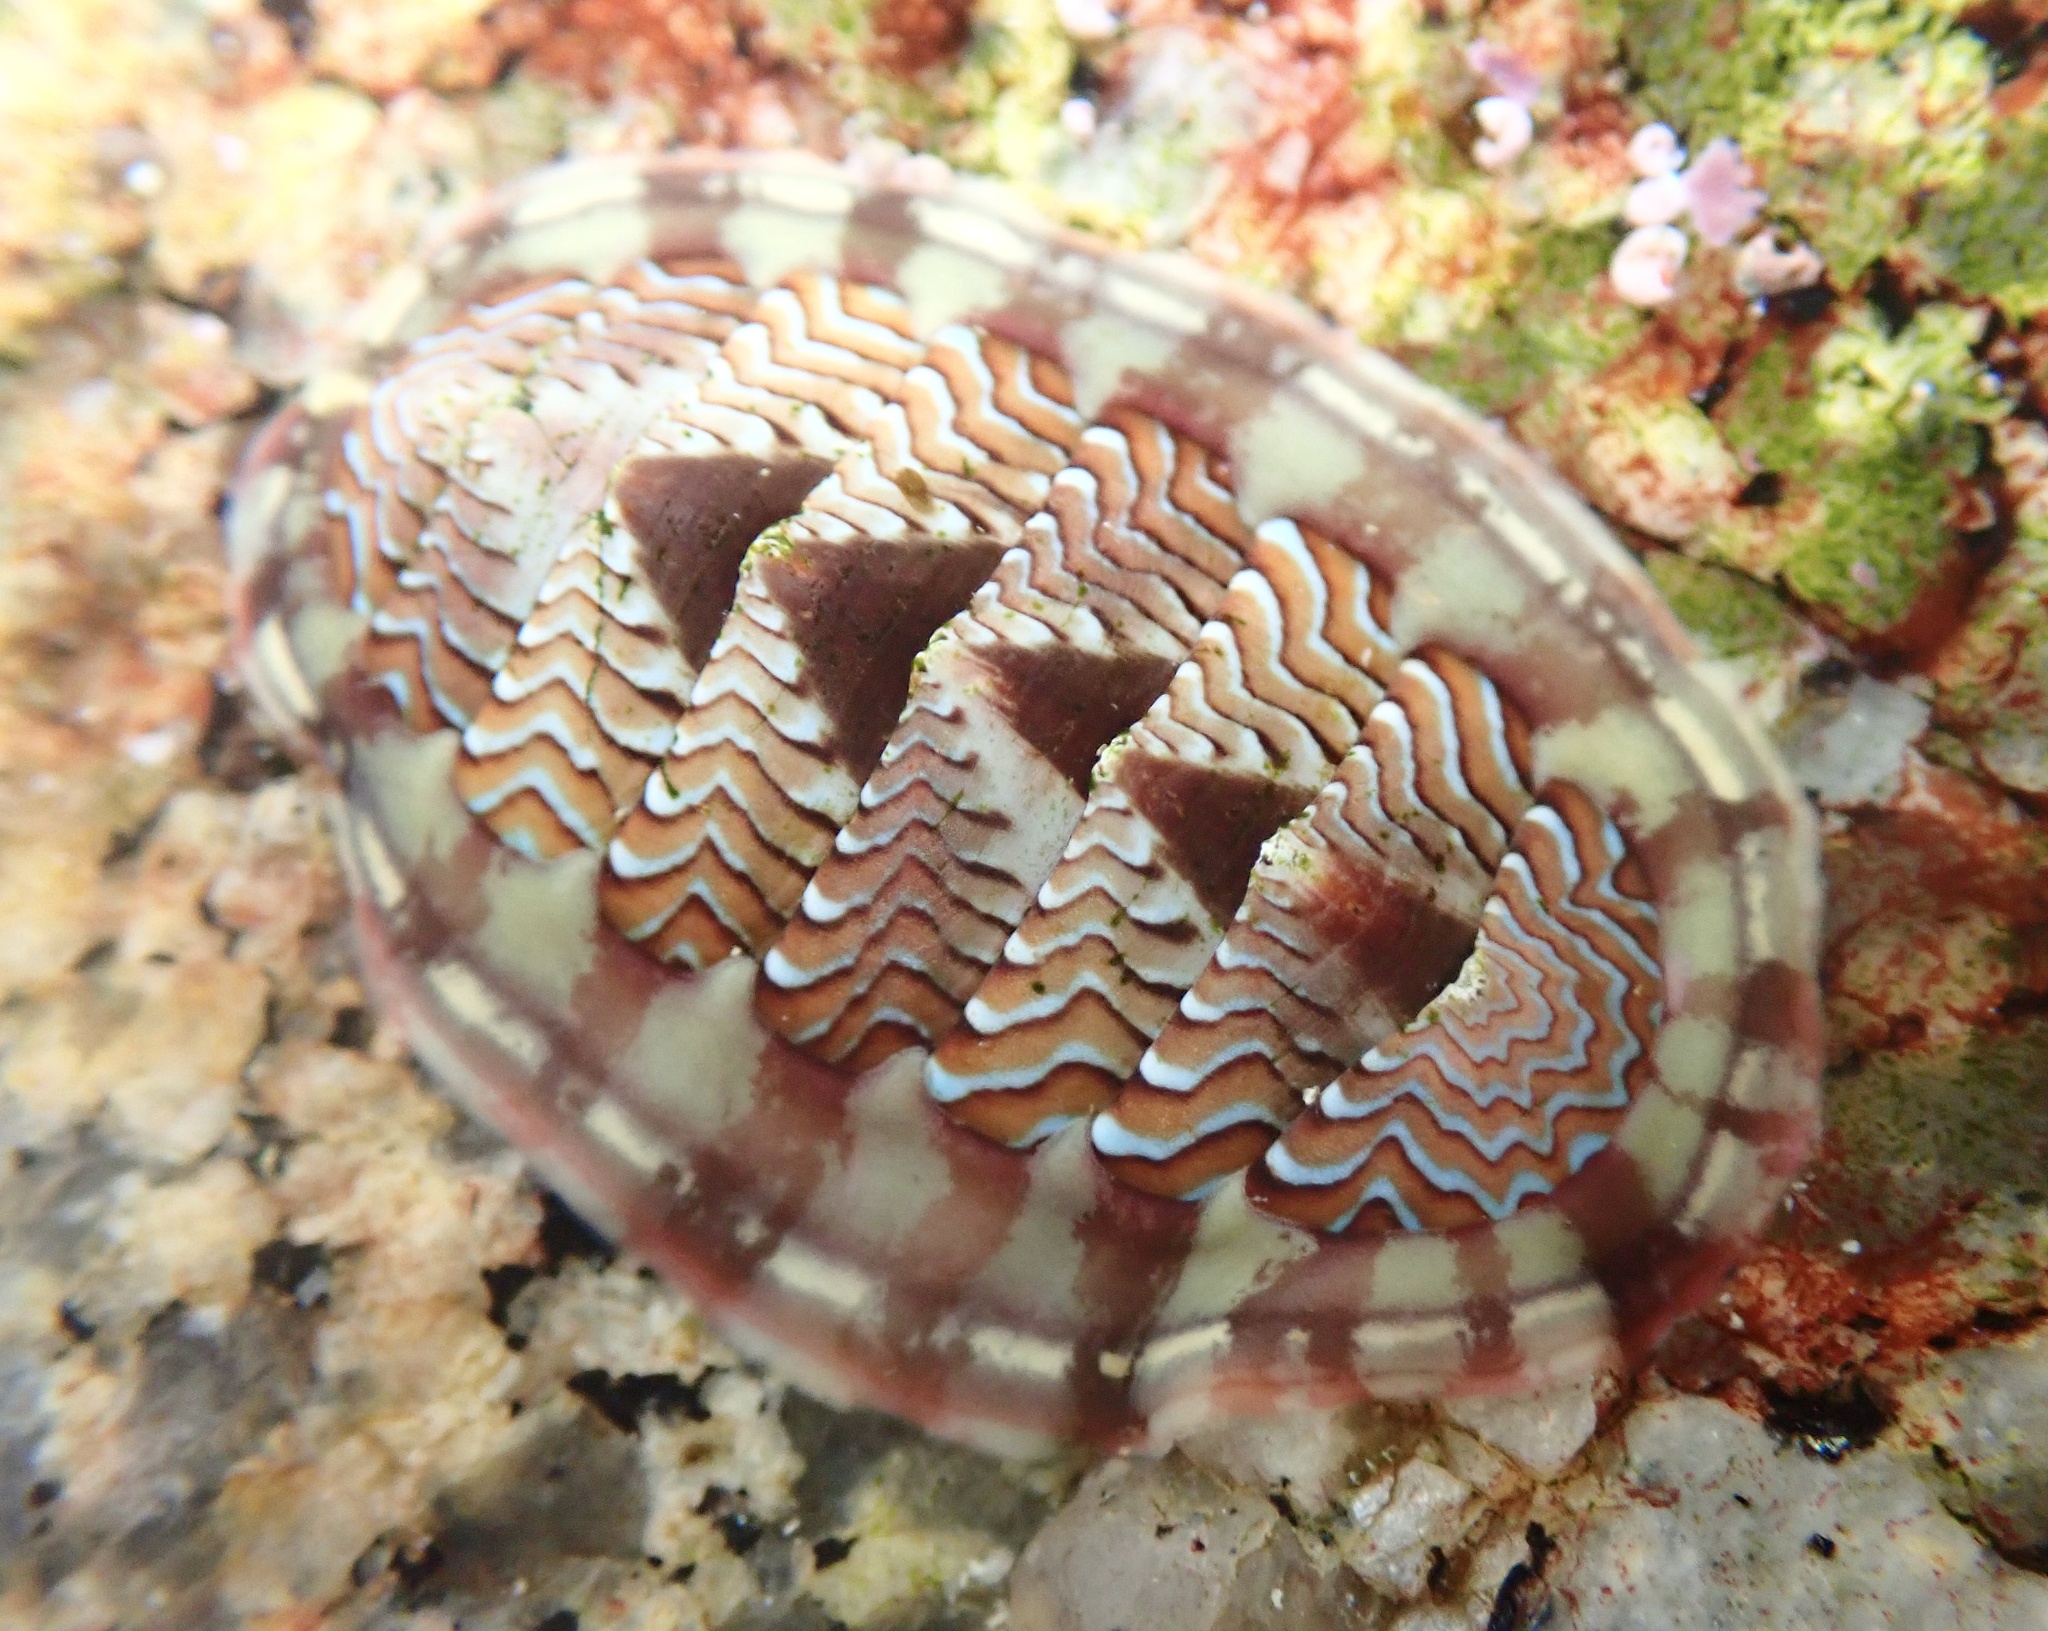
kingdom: Animalia
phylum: Mollusca
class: Polyplacophora
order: Chitonida
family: Tonicellidae
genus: Tonicella
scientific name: Tonicella lokii
